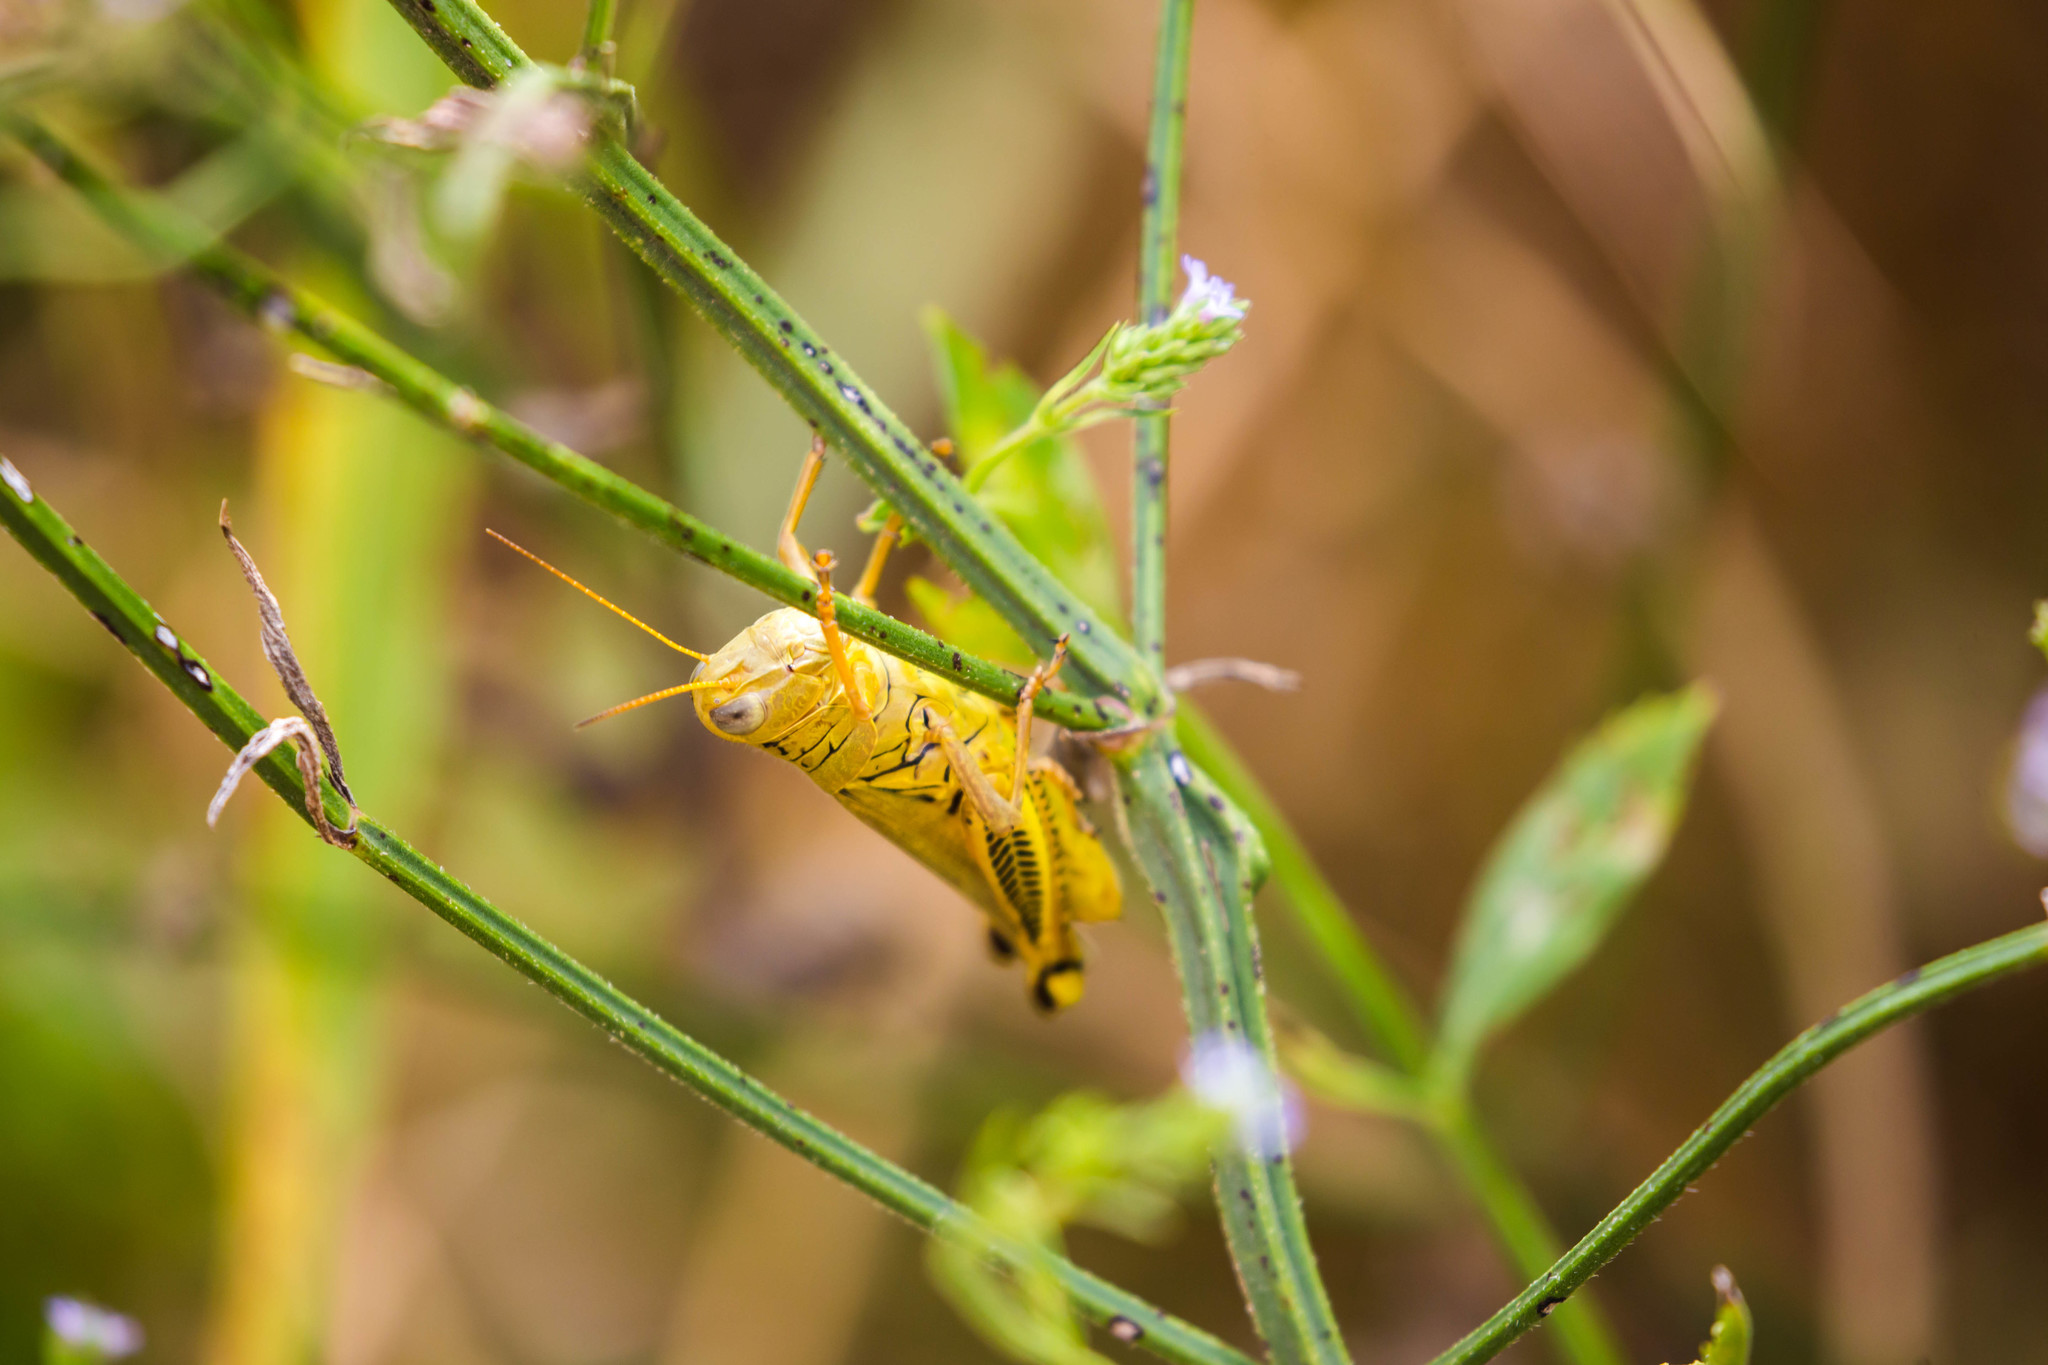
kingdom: Animalia
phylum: Arthropoda
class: Insecta
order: Orthoptera
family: Acrididae
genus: Melanoplus
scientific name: Melanoplus differentialis
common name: Differential grasshopper
